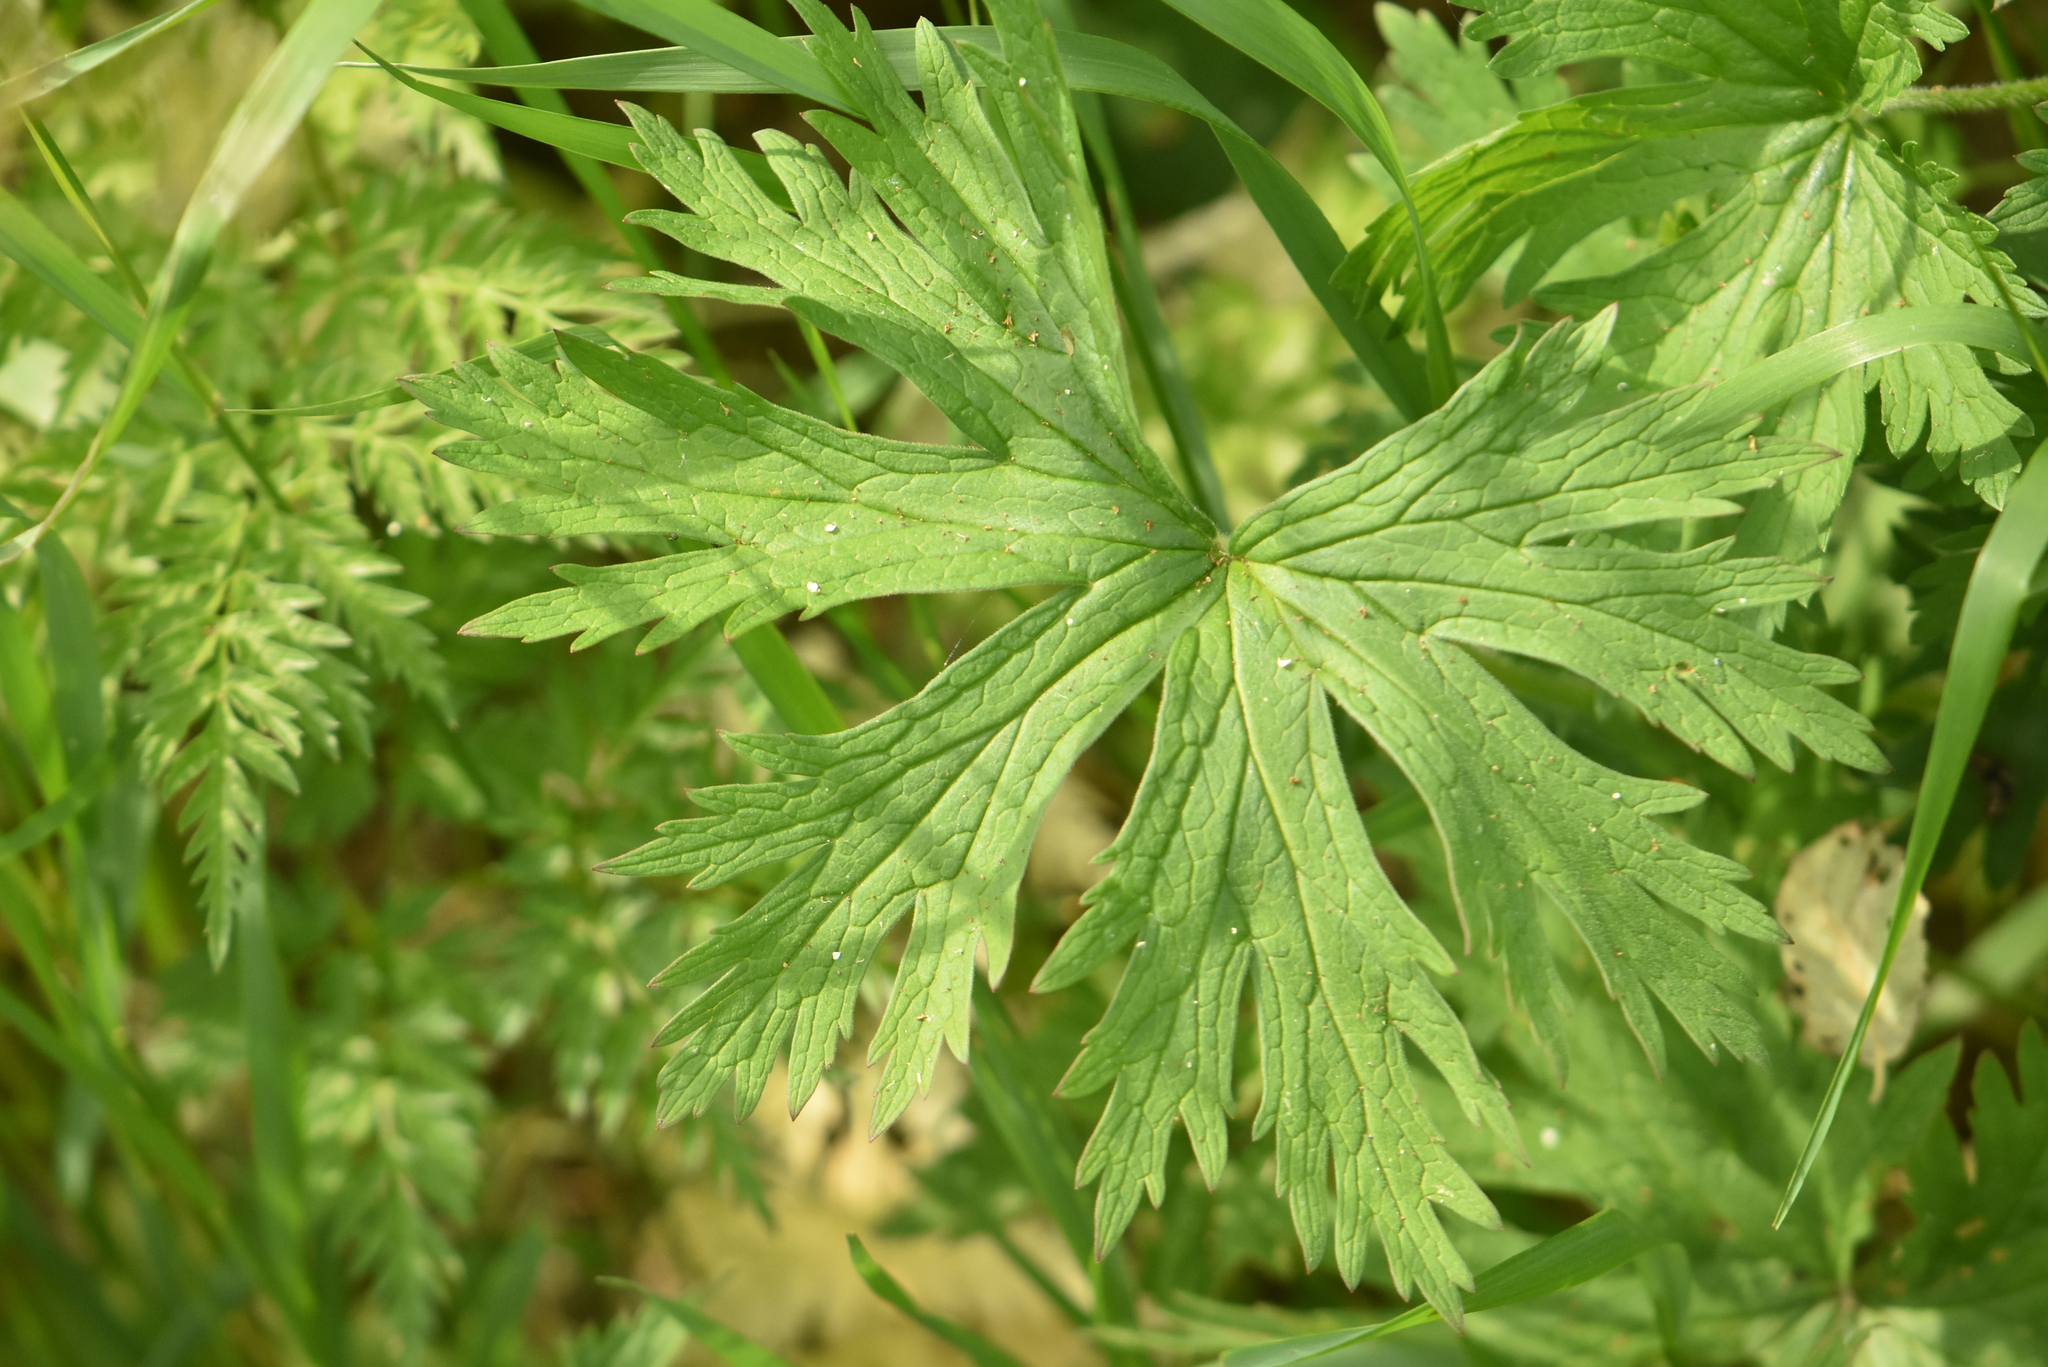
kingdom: Plantae
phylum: Tracheophyta
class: Magnoliopsida
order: Geraniales
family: Geraniaceae
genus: Geranium
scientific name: Geranium pratense
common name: Meadow crane's-bill
